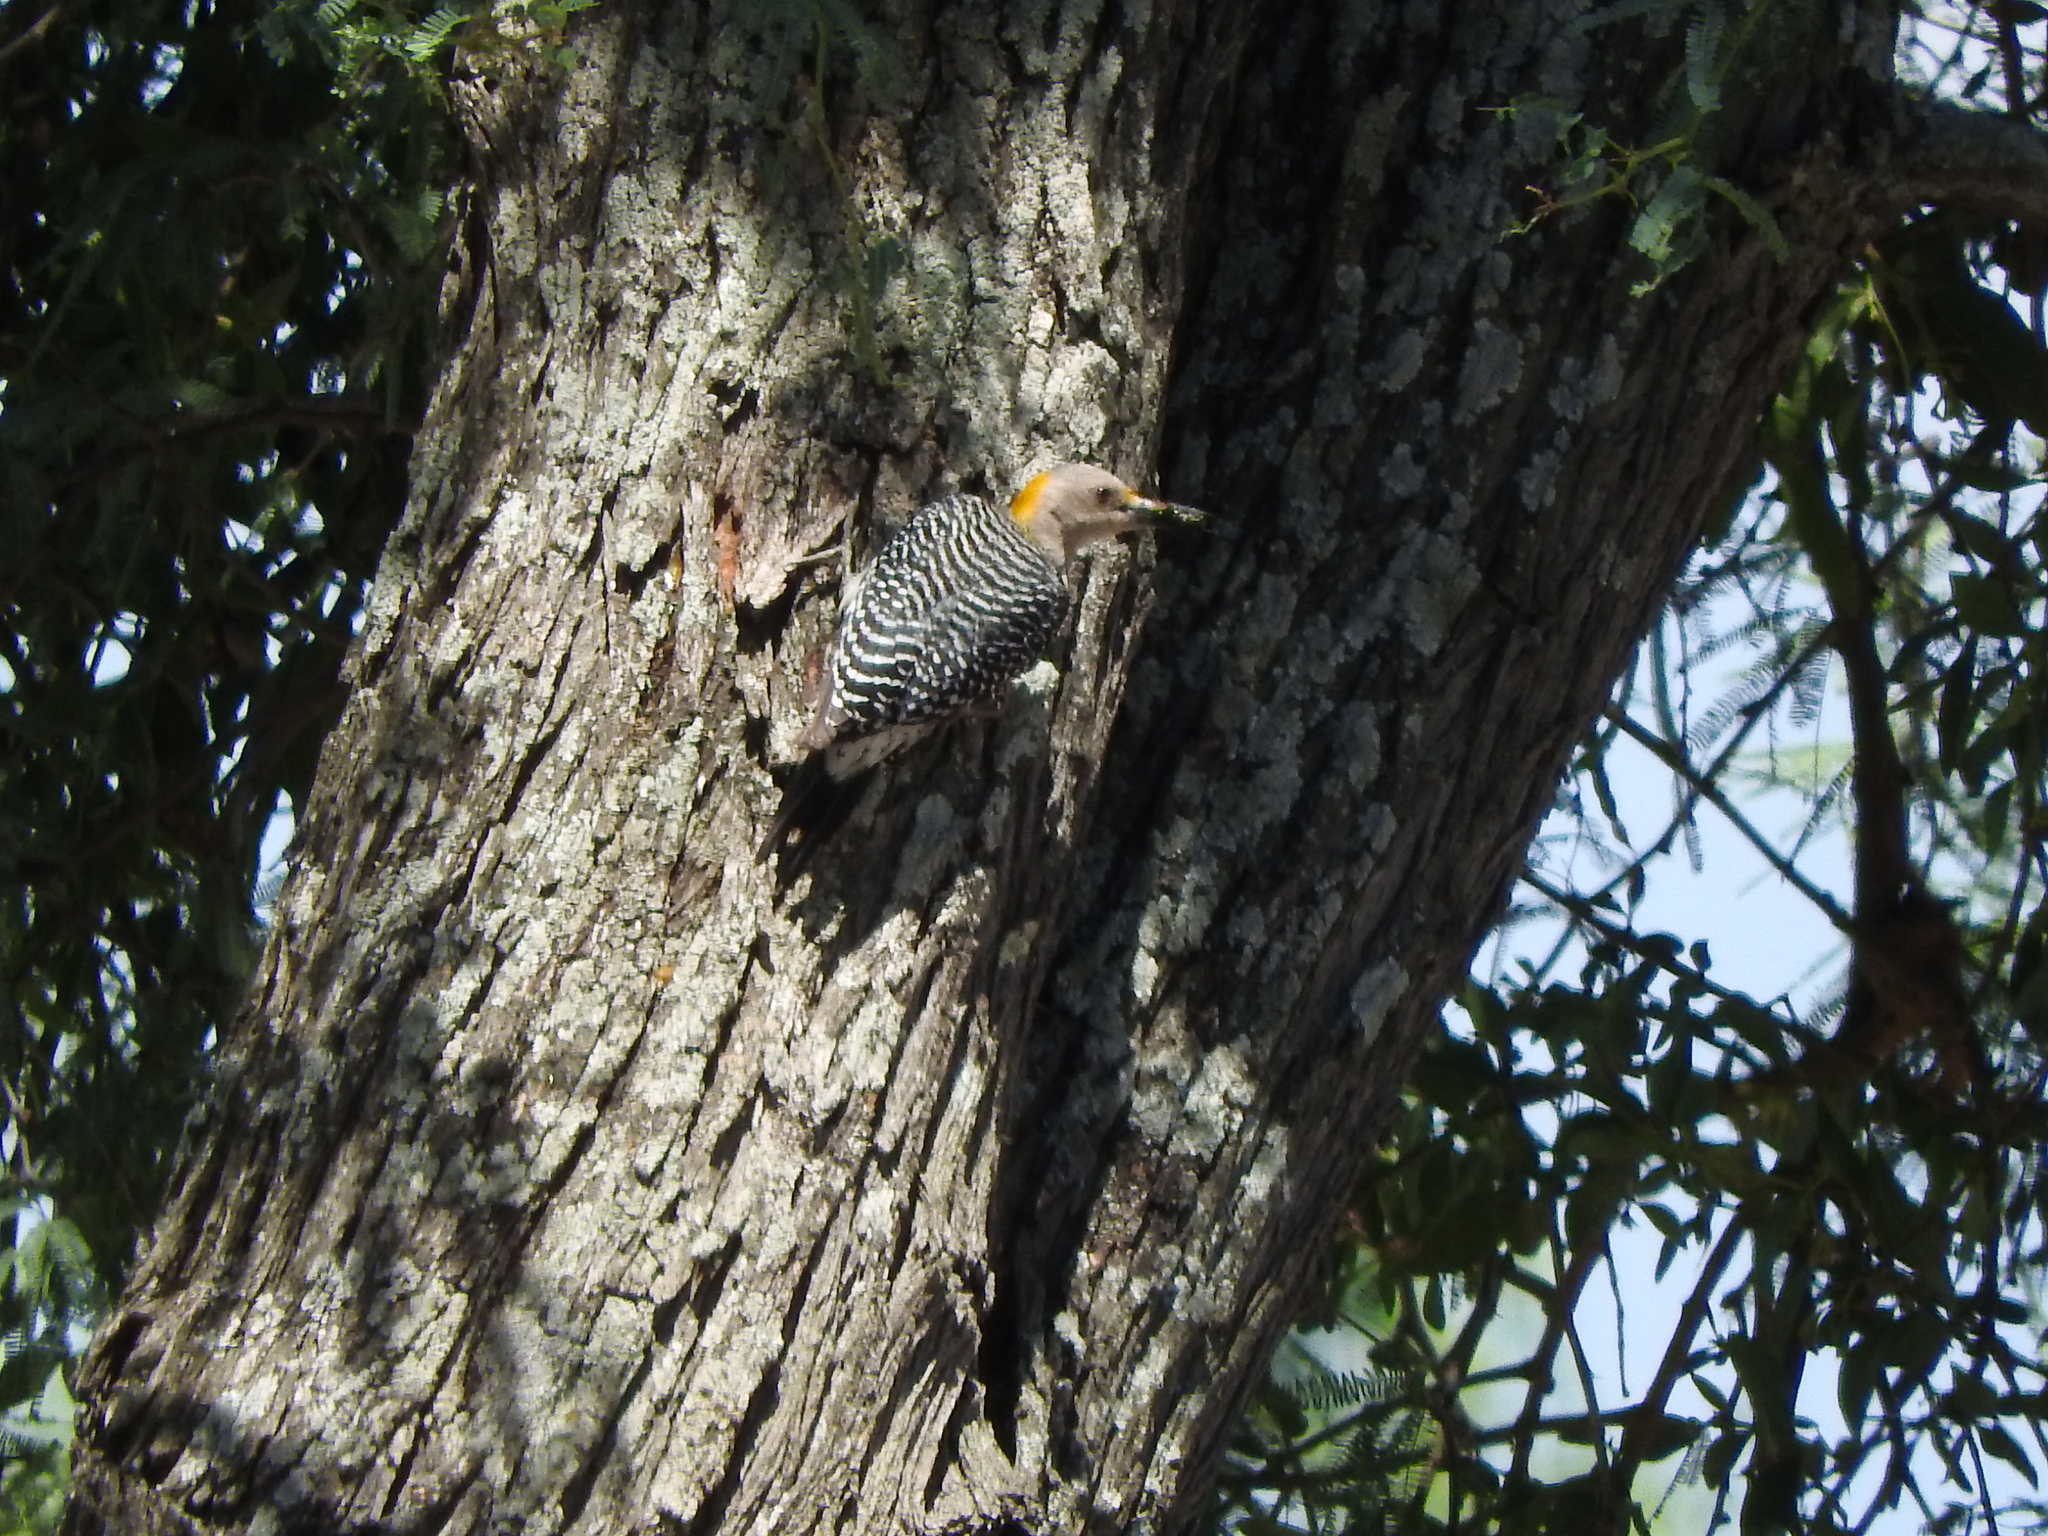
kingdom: Animalia
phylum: Chordata
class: Aves
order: Piciformes
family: Picidae
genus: Melanerpes
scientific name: Melanerpes aurifrons
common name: Golden-fronted woodpecker
